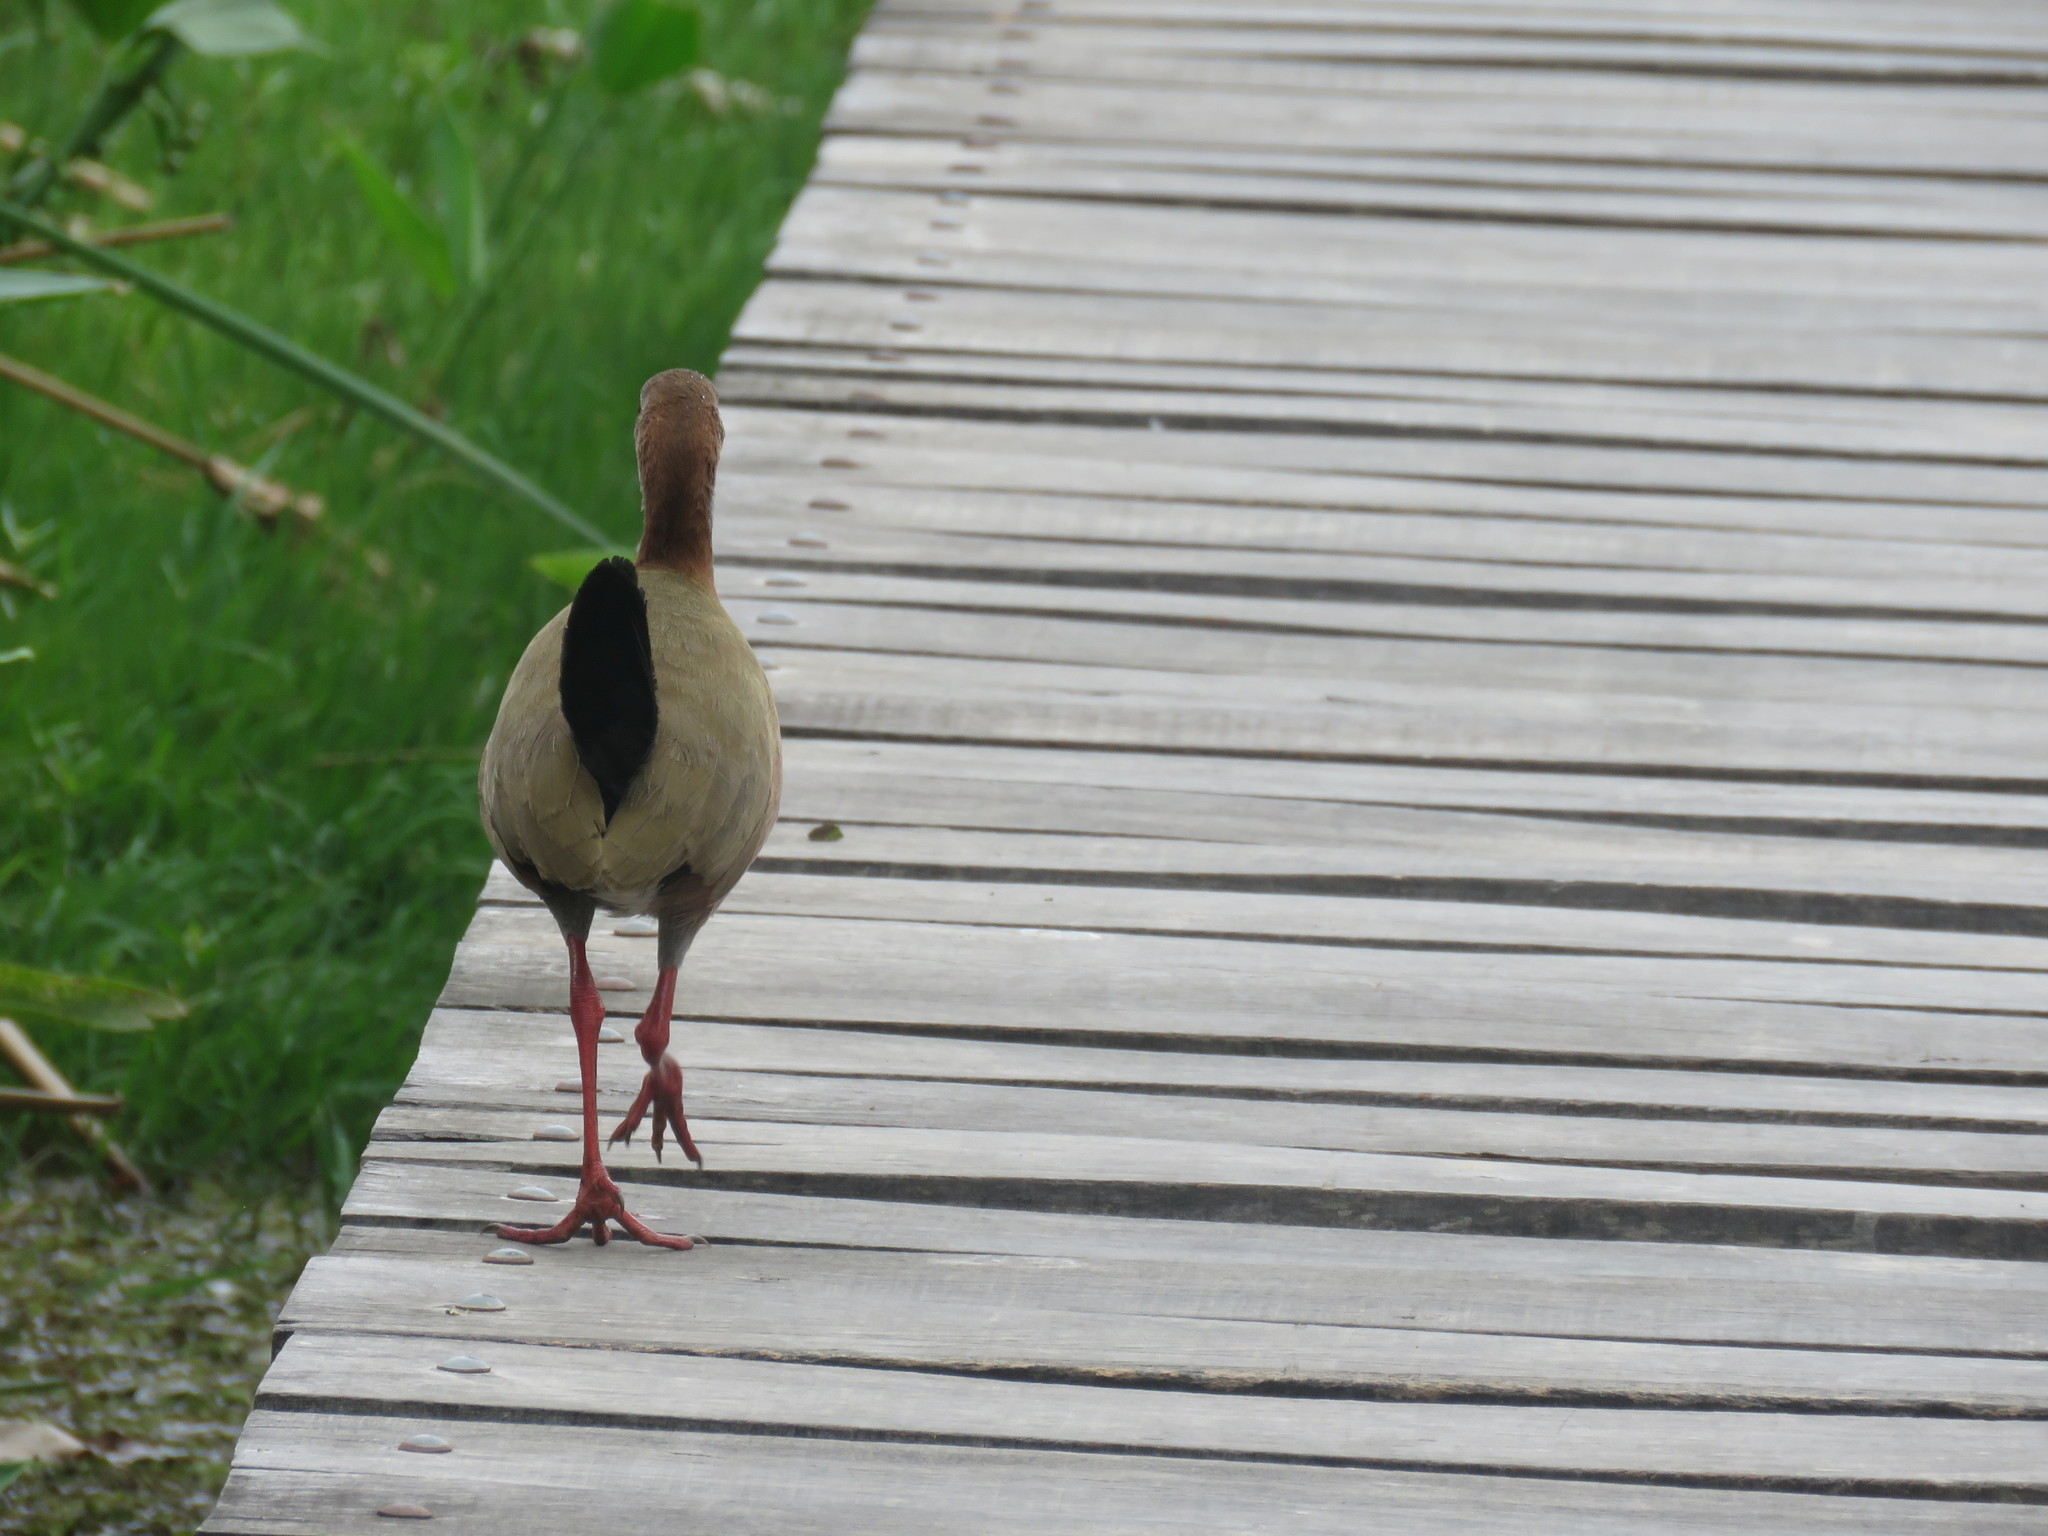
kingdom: Animalia
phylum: Chordata
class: Aves
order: Gruiformes
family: Rallidae
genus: Aramides
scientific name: Aramides ypecaha
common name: Giant wood rail
